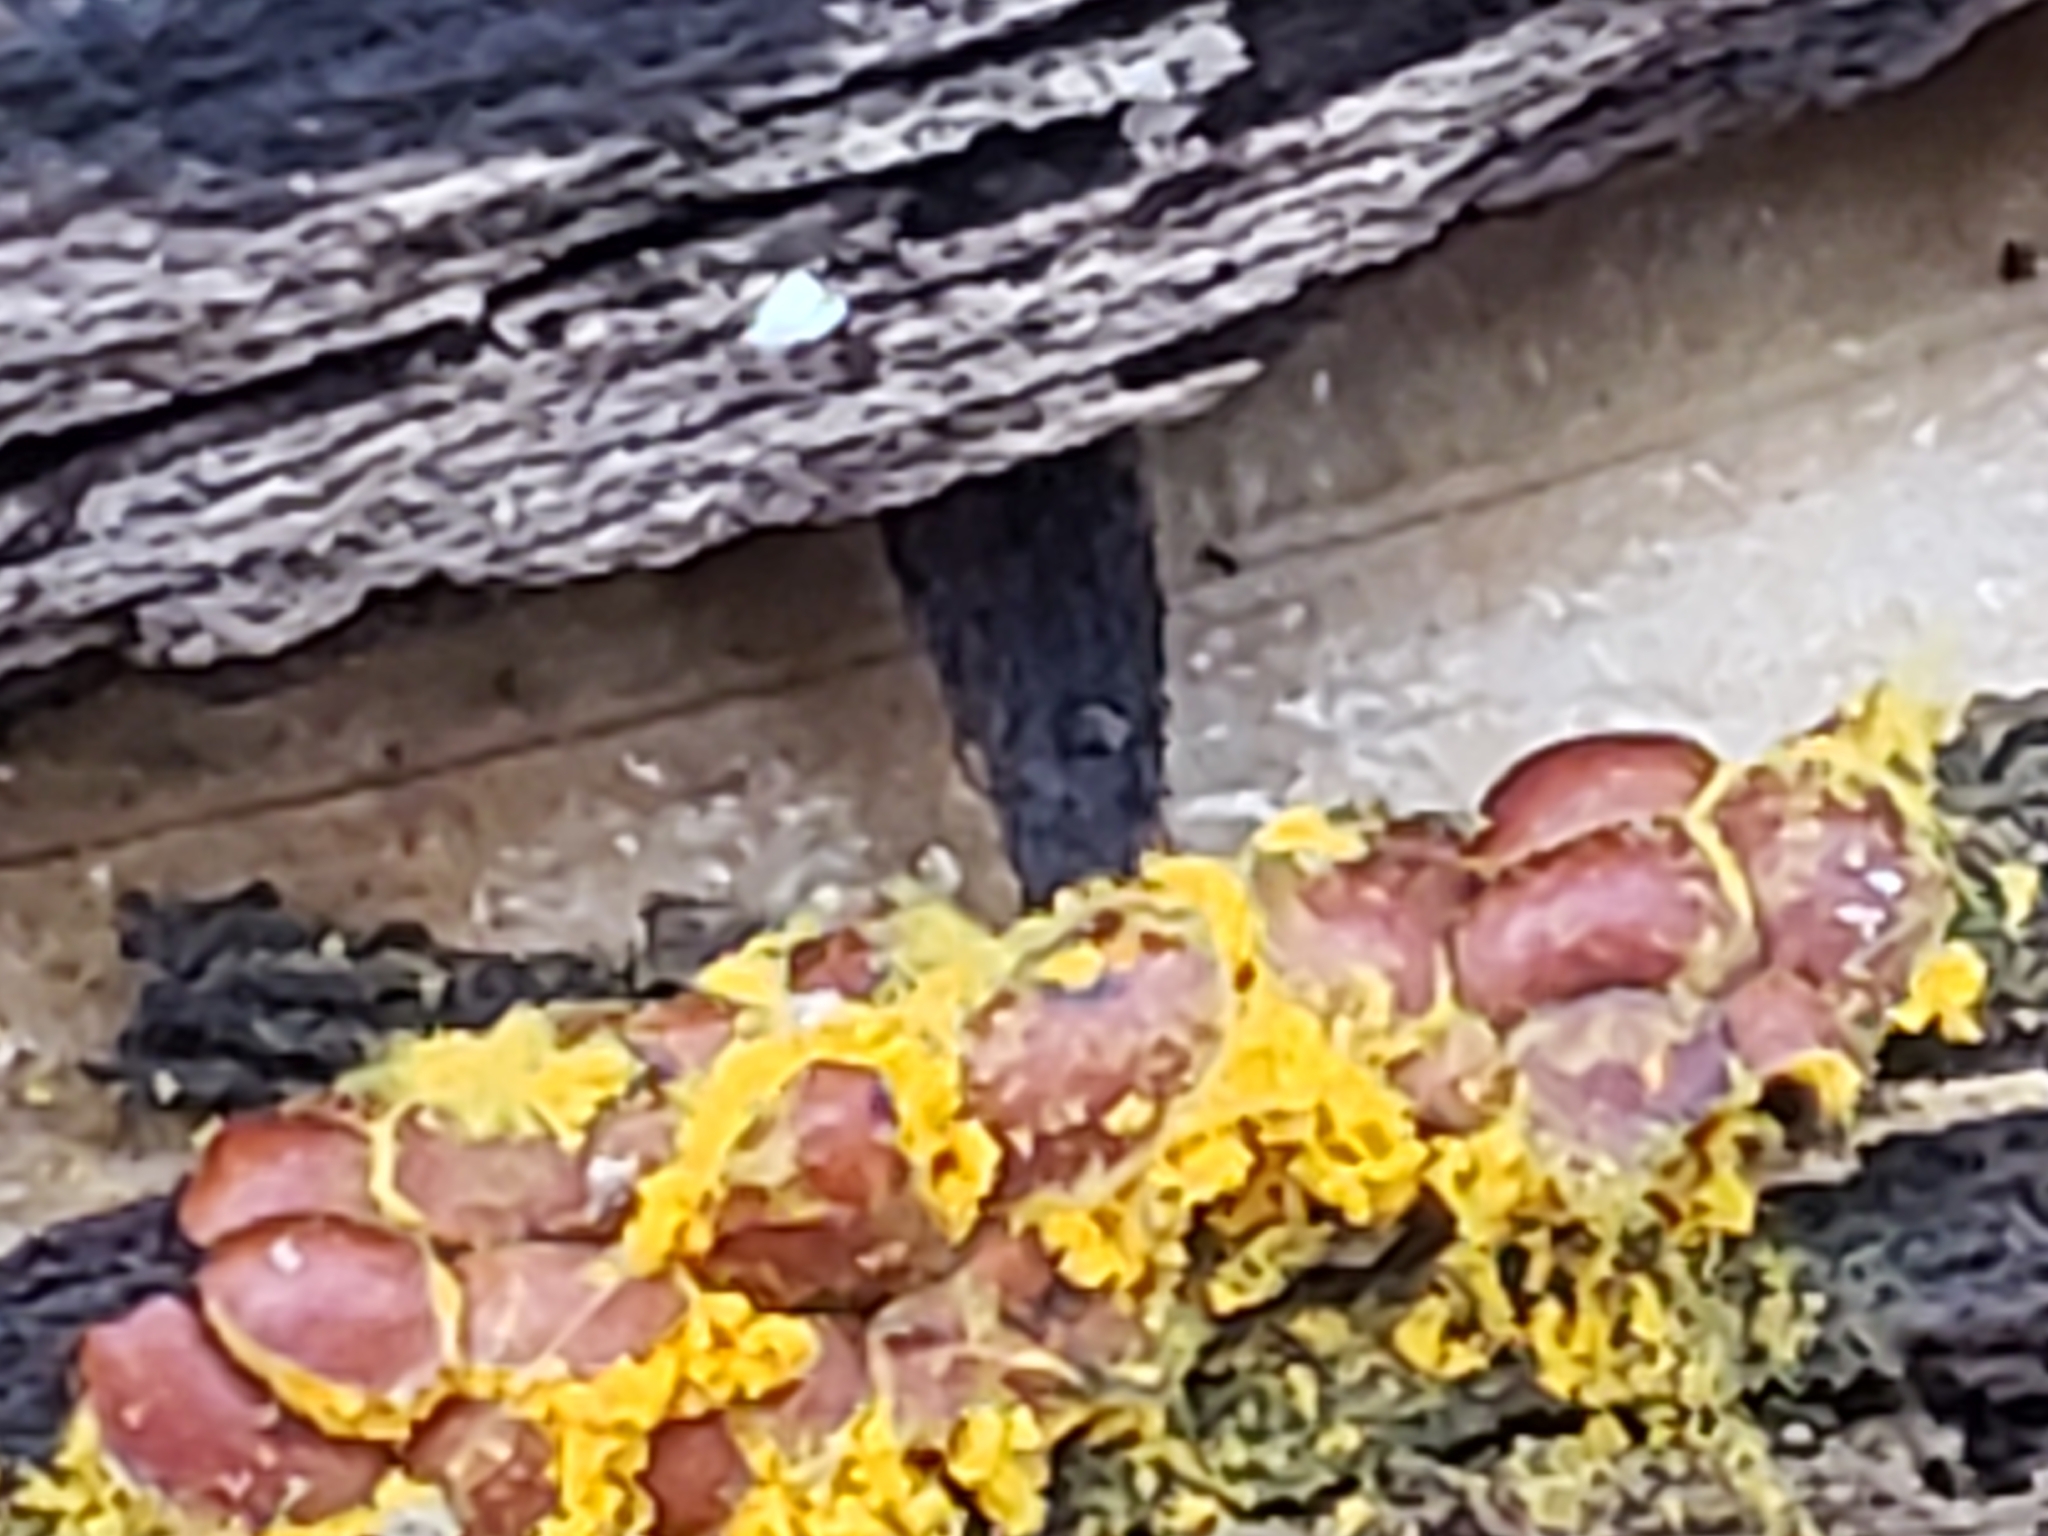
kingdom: Protozoa
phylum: Mycetozoa
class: Myxomycetes
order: Trichiales
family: Trichiaceae
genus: Perichaena
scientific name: Perichaena depressa
